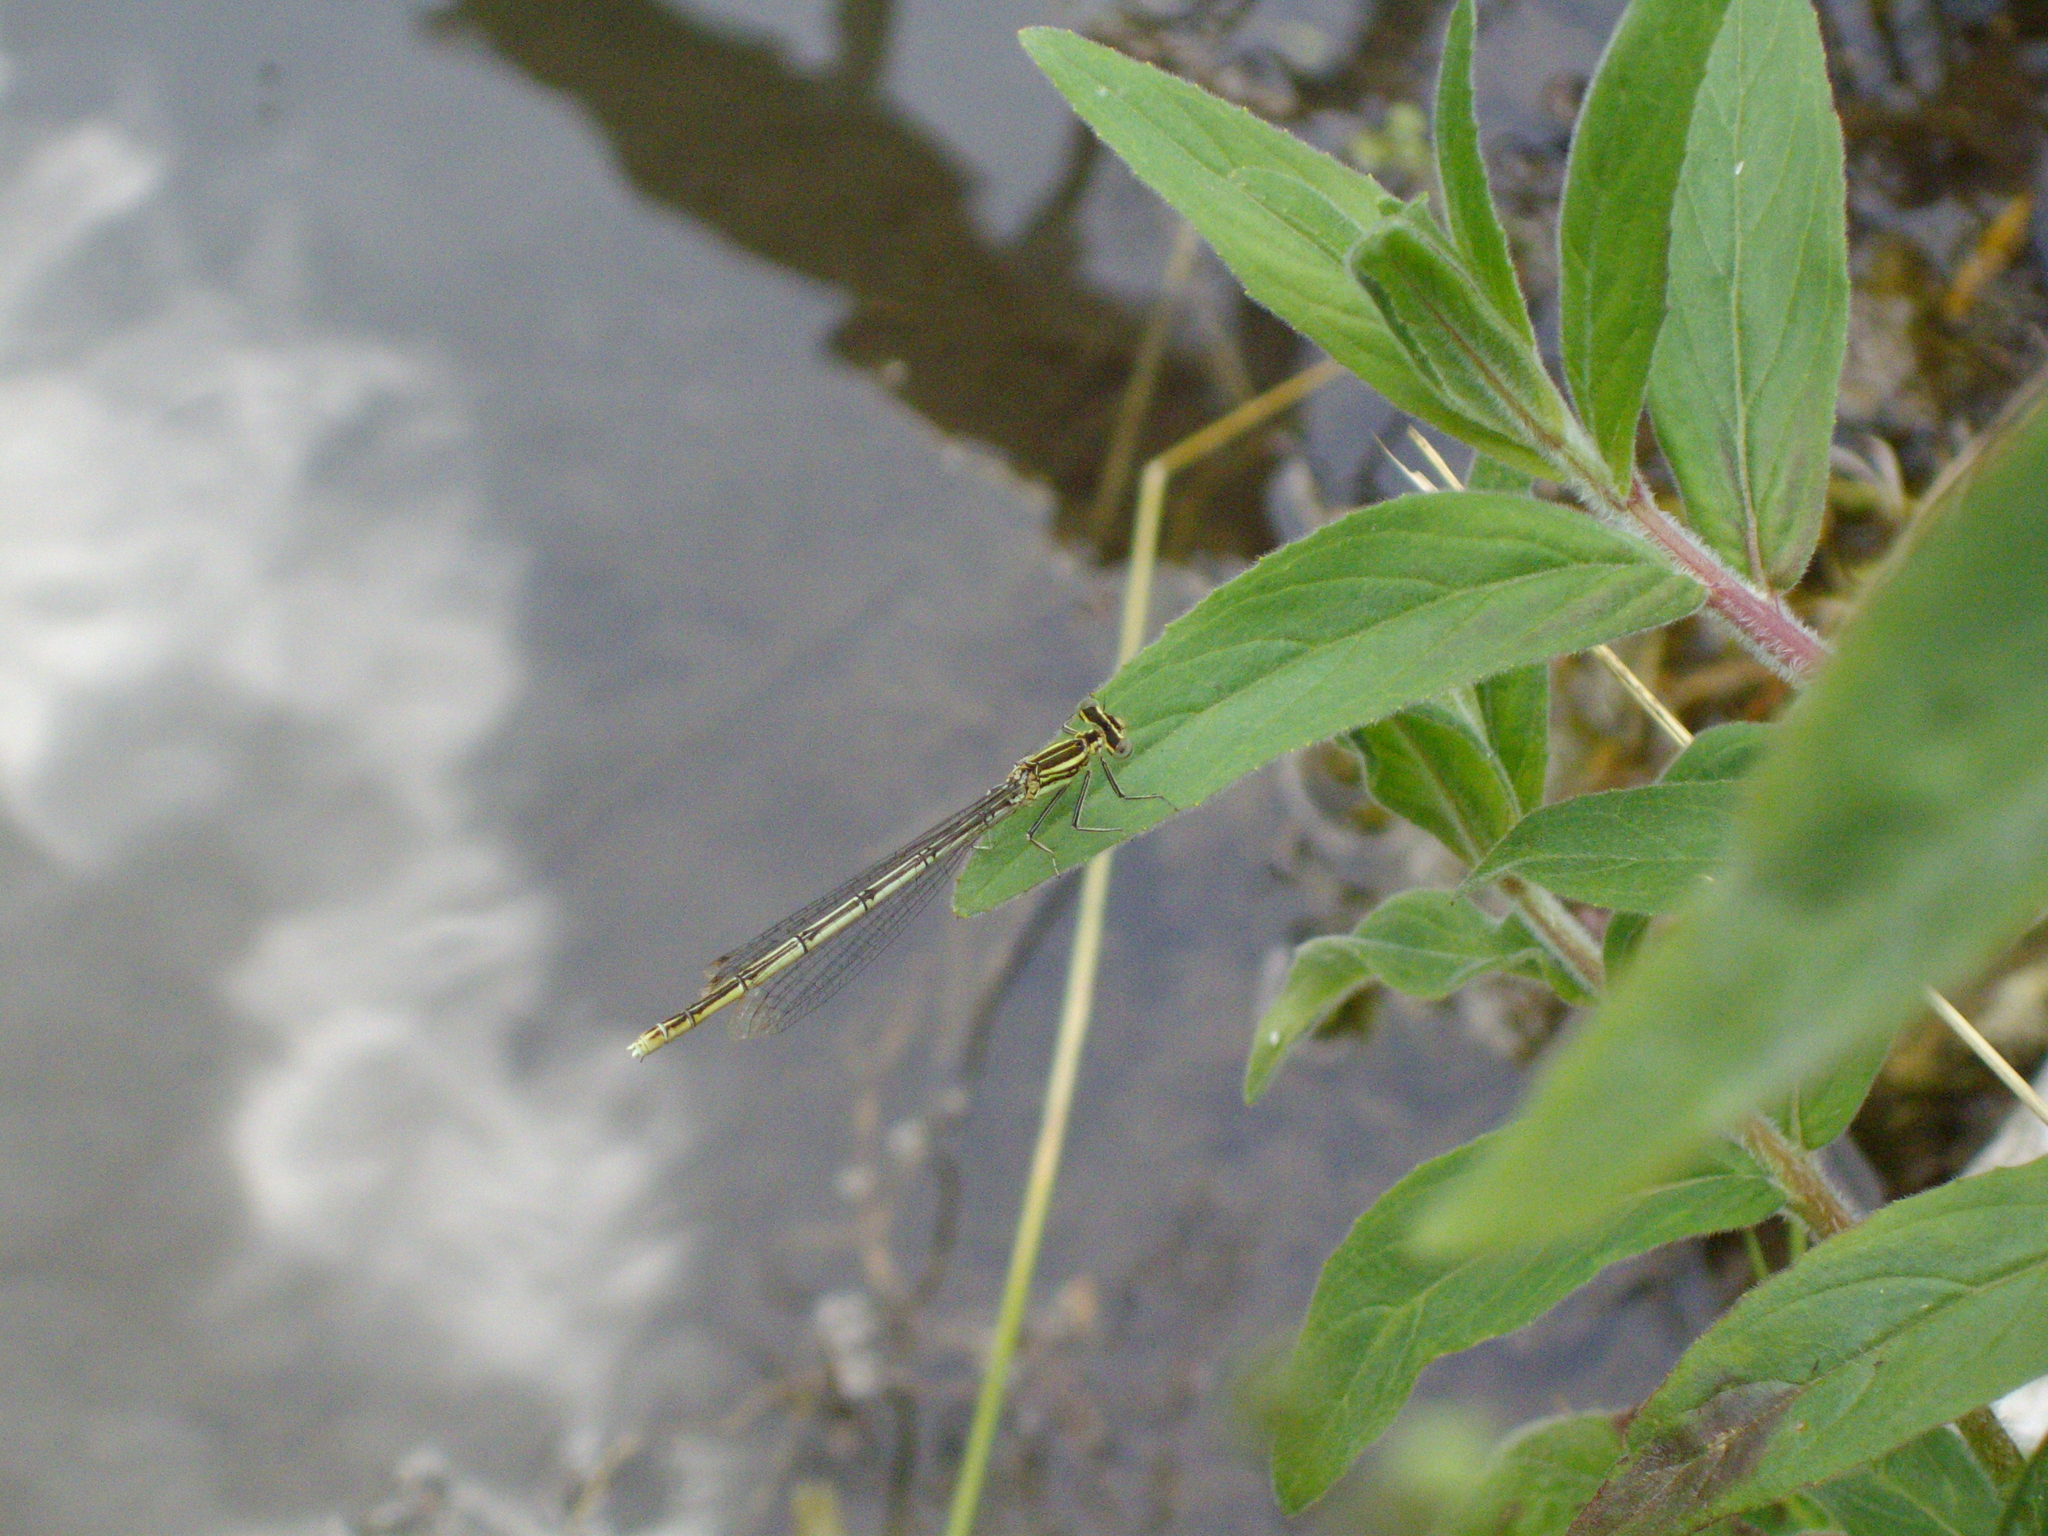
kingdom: Animalia
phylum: Arthropoda
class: Insecta
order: Odonata
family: Platycnemididae
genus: Platycnemis
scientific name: Platycnemis pennipes
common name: White-legged damselfly
